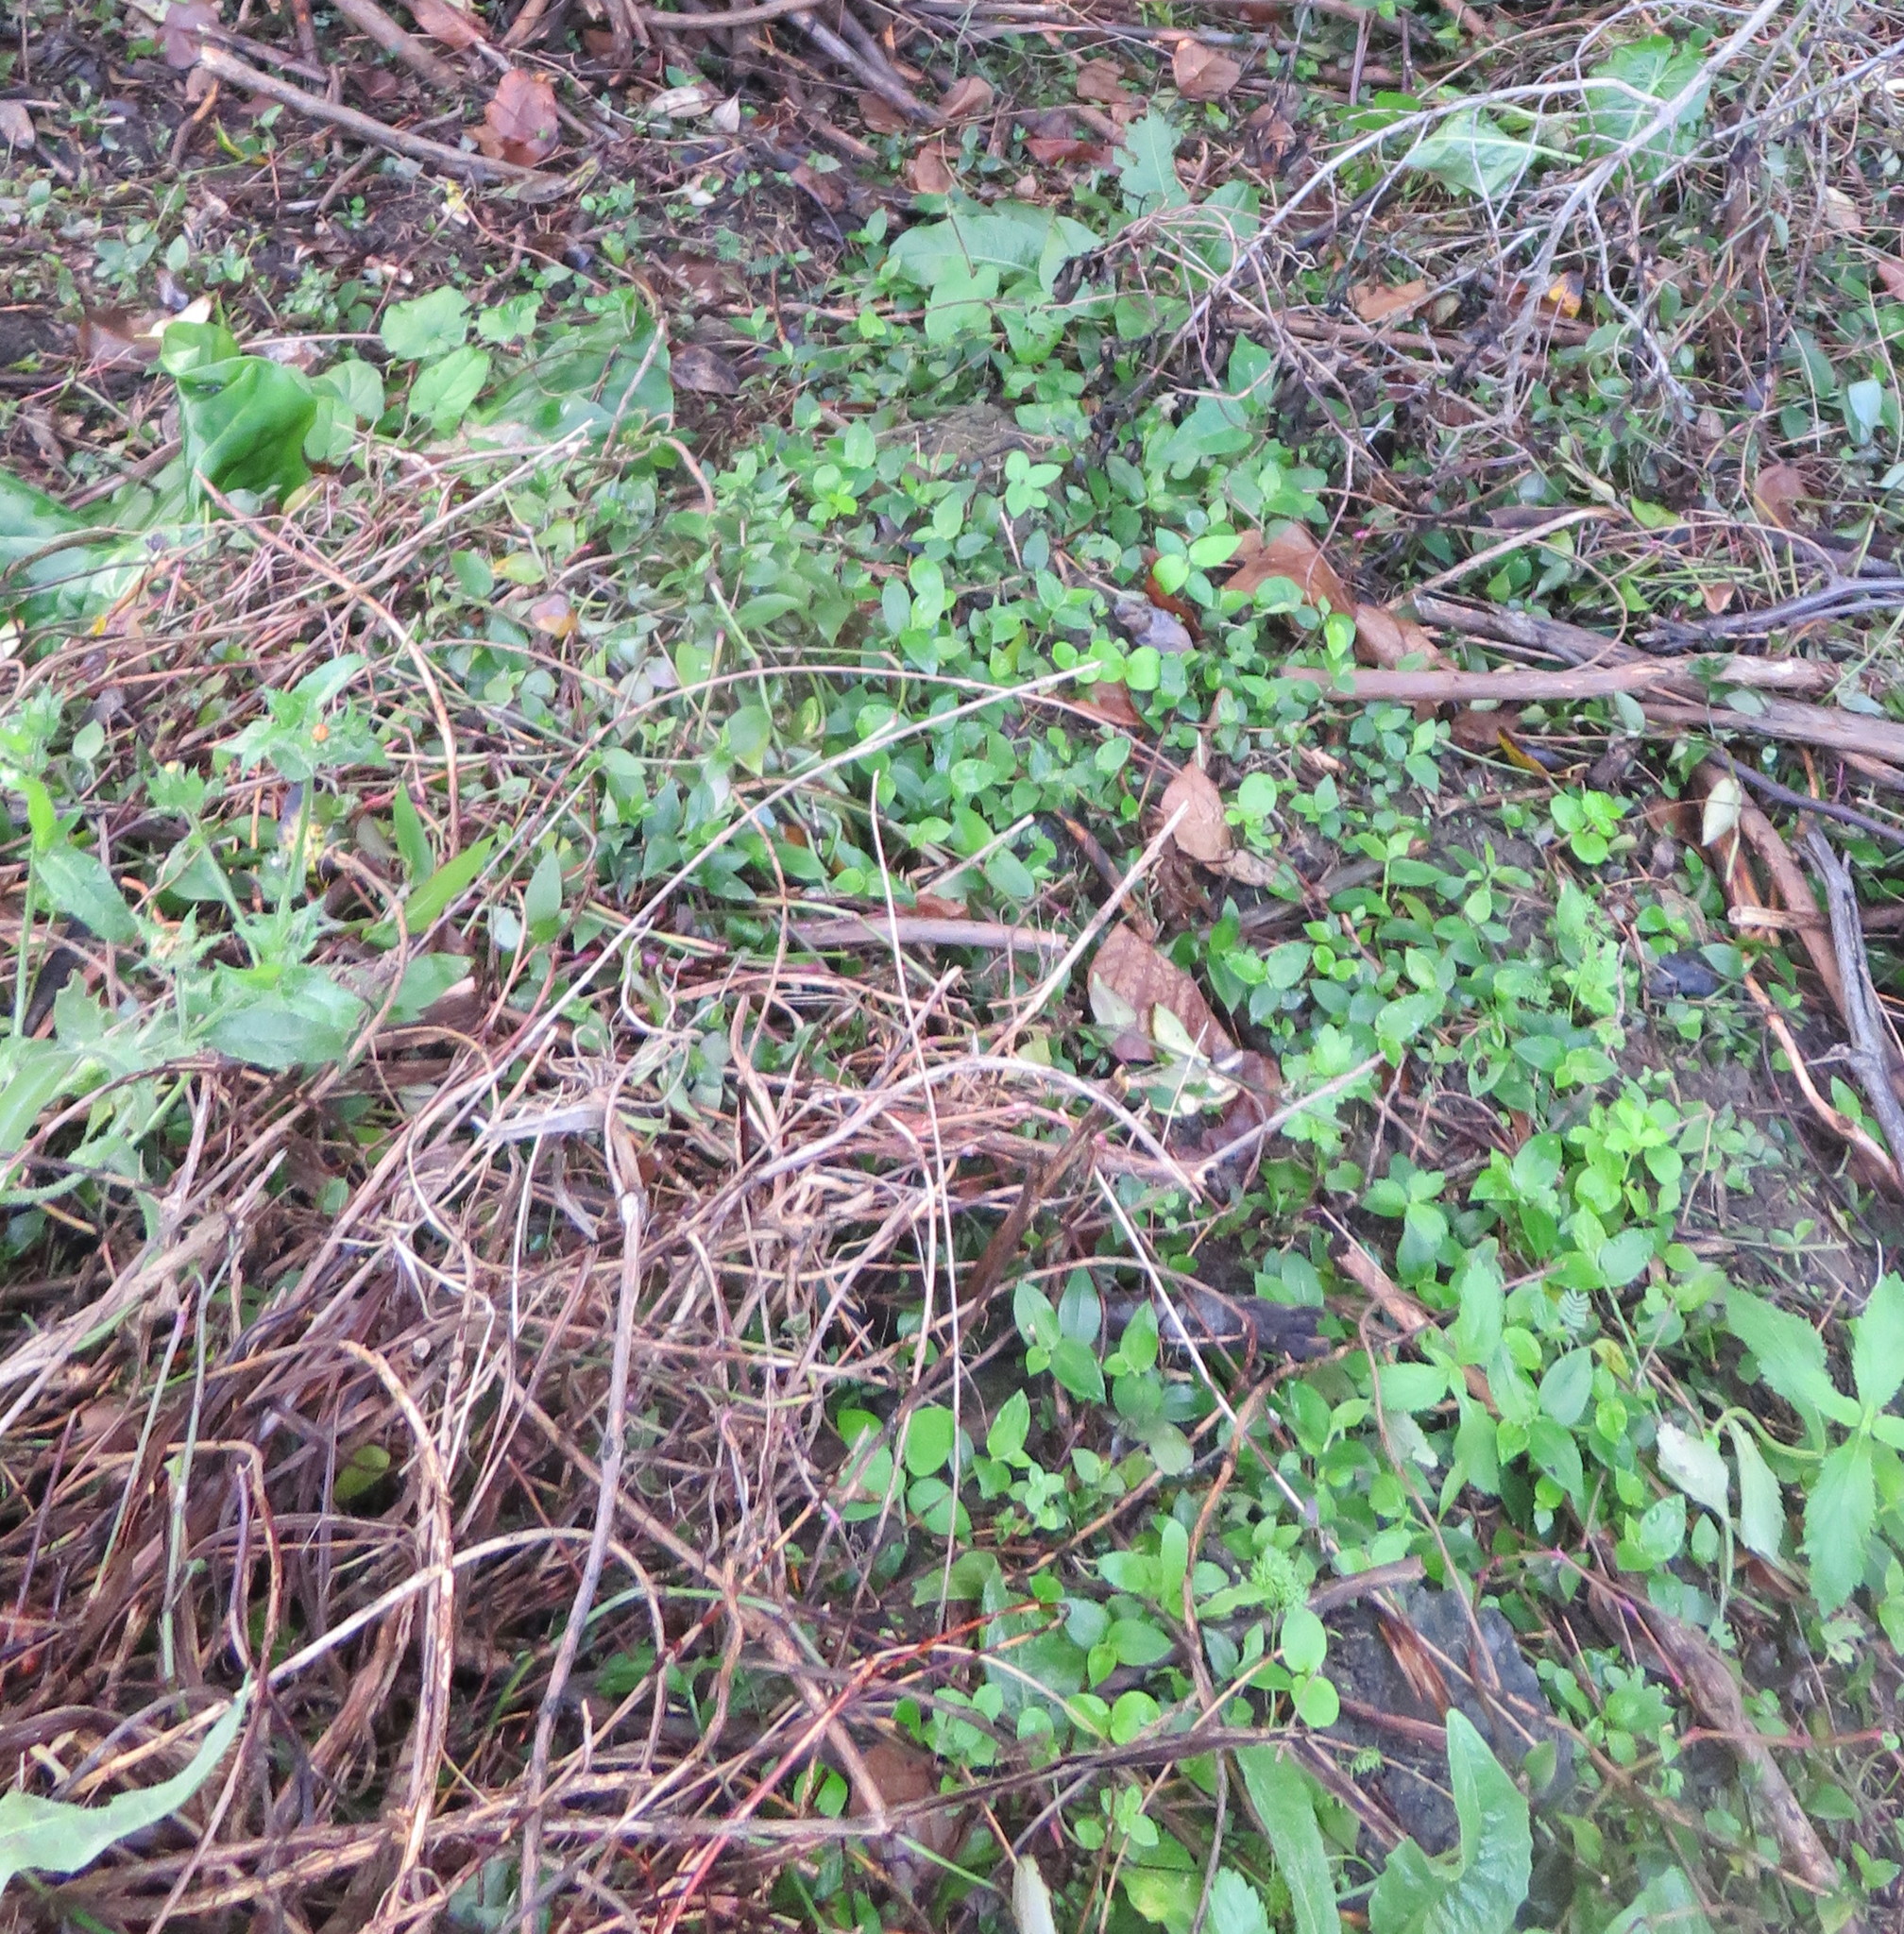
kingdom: Plantae
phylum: Tracheophyta
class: Liliopsida
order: Commelinales
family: Commelinaceae
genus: Tradescantia
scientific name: Tradescantia fluminensis
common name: Wandering-jew
